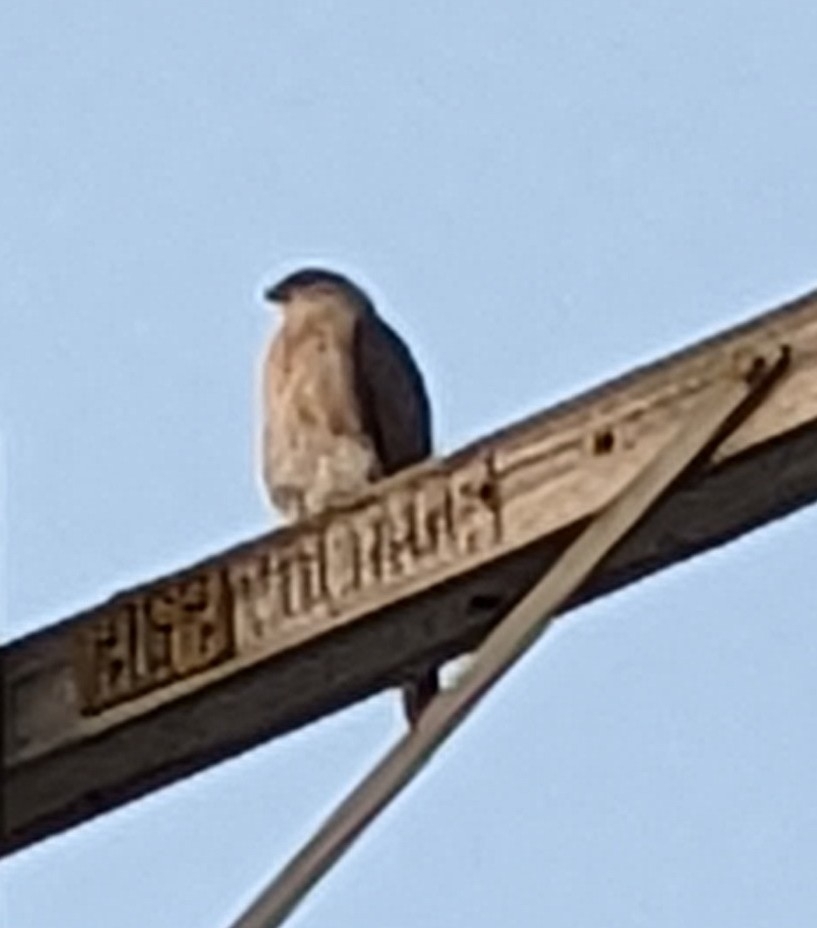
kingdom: Animalia
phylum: Chordata
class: Aves
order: Accipitriformes
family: Accipitridae
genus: Accipiter
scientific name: Accipiter cooperii
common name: Cooper's hawk
